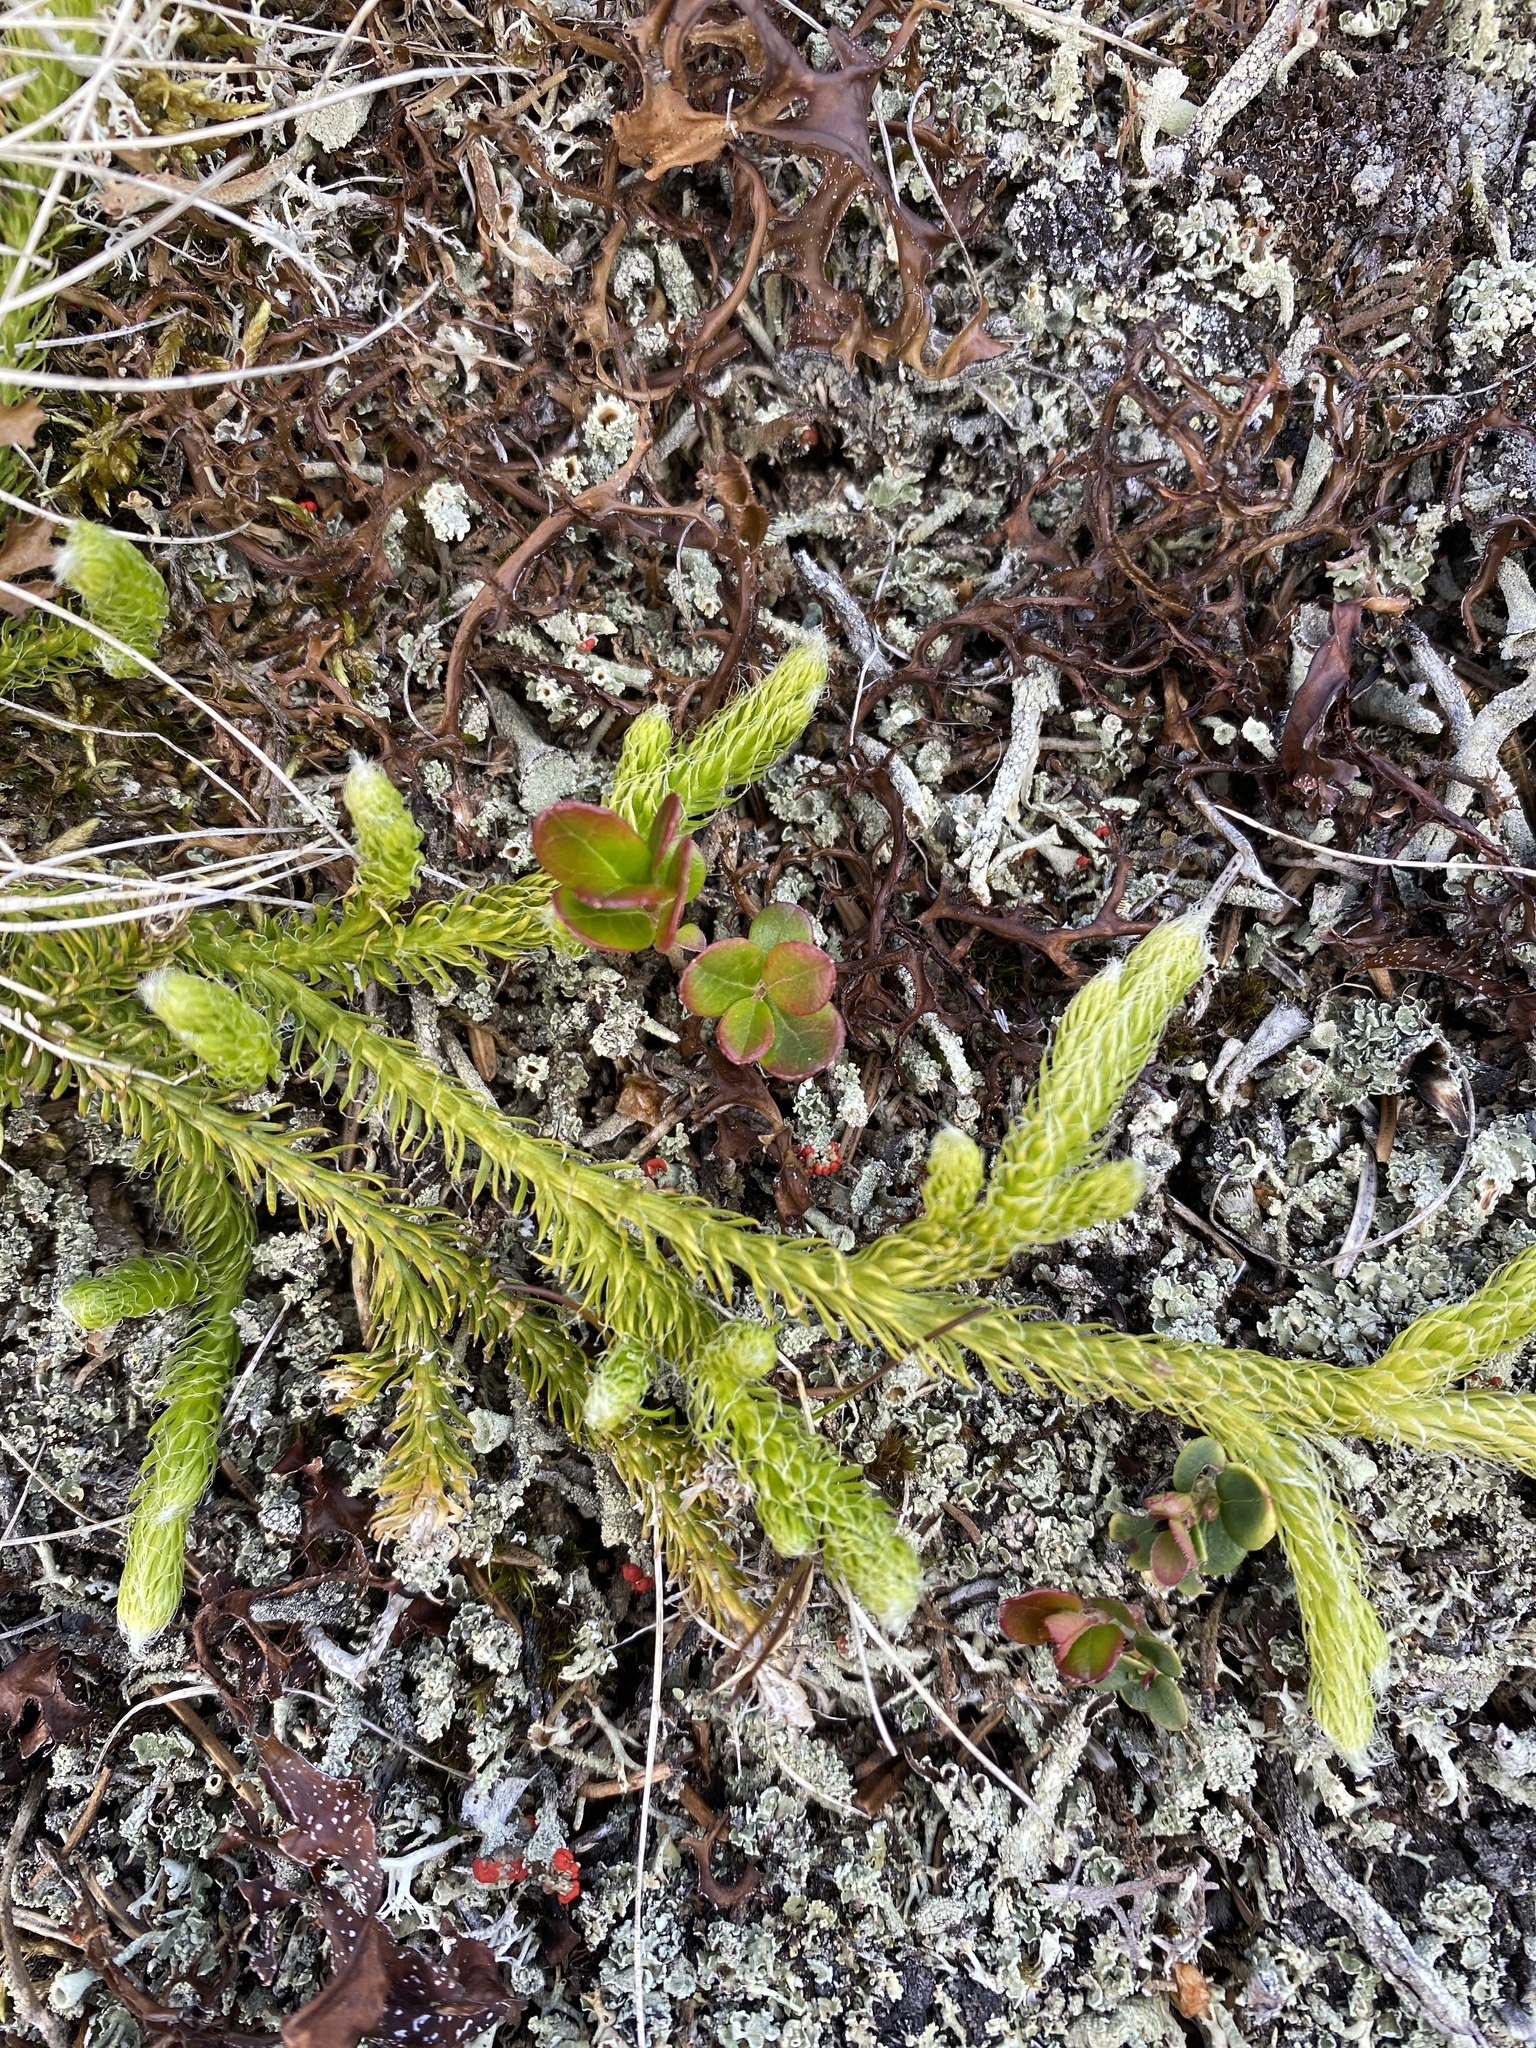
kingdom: Plantae
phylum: Tracheophyta
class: Lycopodiopsida
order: Lycopodiales
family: Lycopodiaceae
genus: Lycopodium
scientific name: Lycopodium clavatum
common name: Stag's-horn clubmoss
